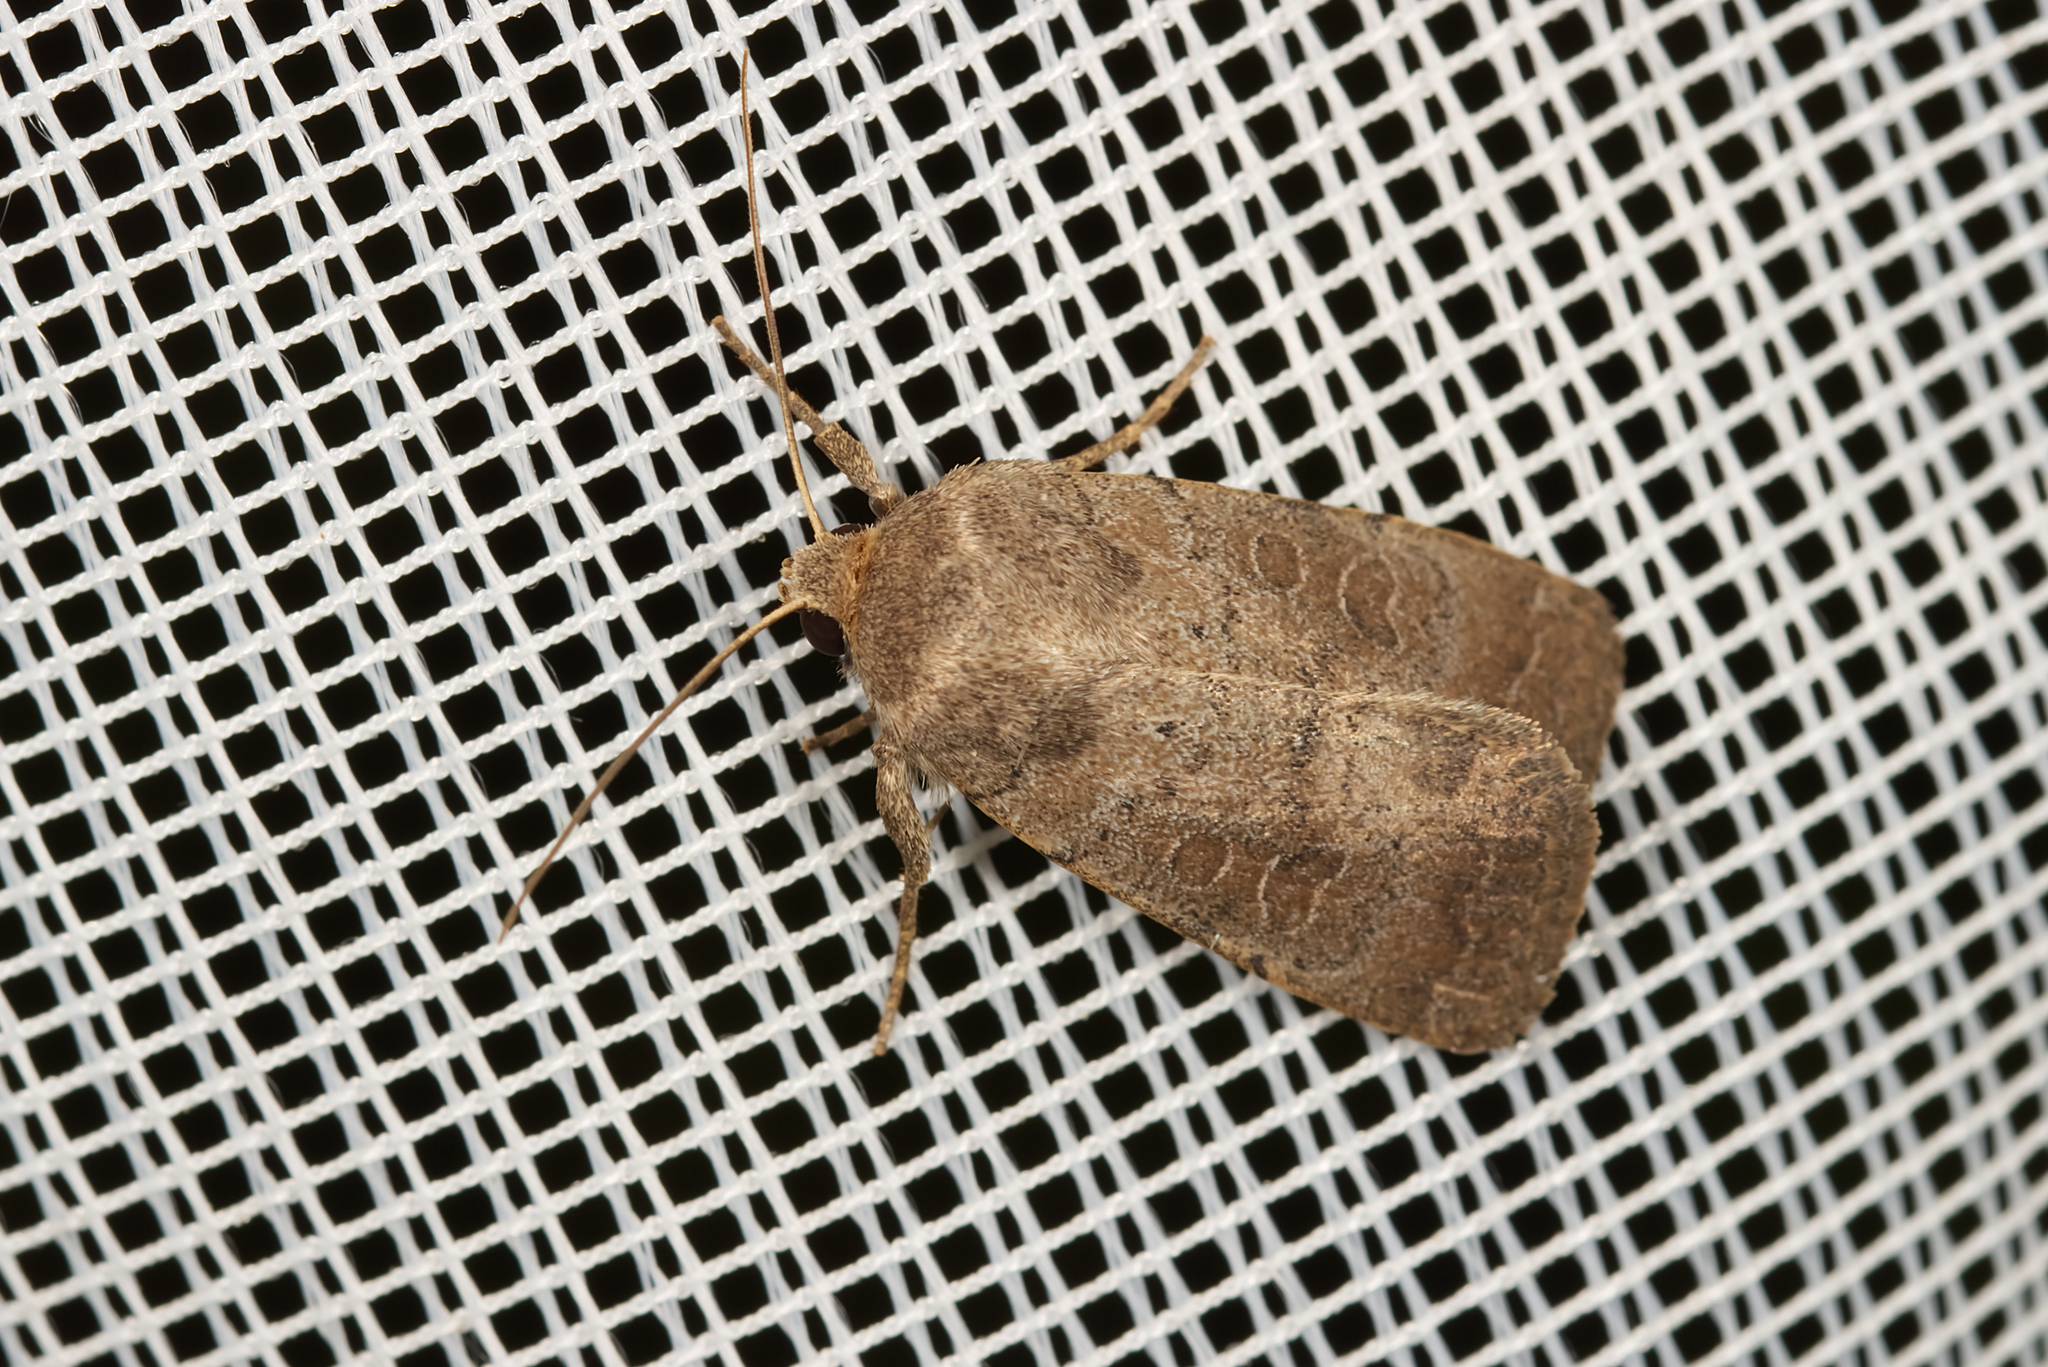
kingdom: Animalia
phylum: Arthropoda
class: Insecta
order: Lepidoptera
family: Noctuidae
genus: Hoplodrina
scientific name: Hoplodrina blanda
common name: Rustic
